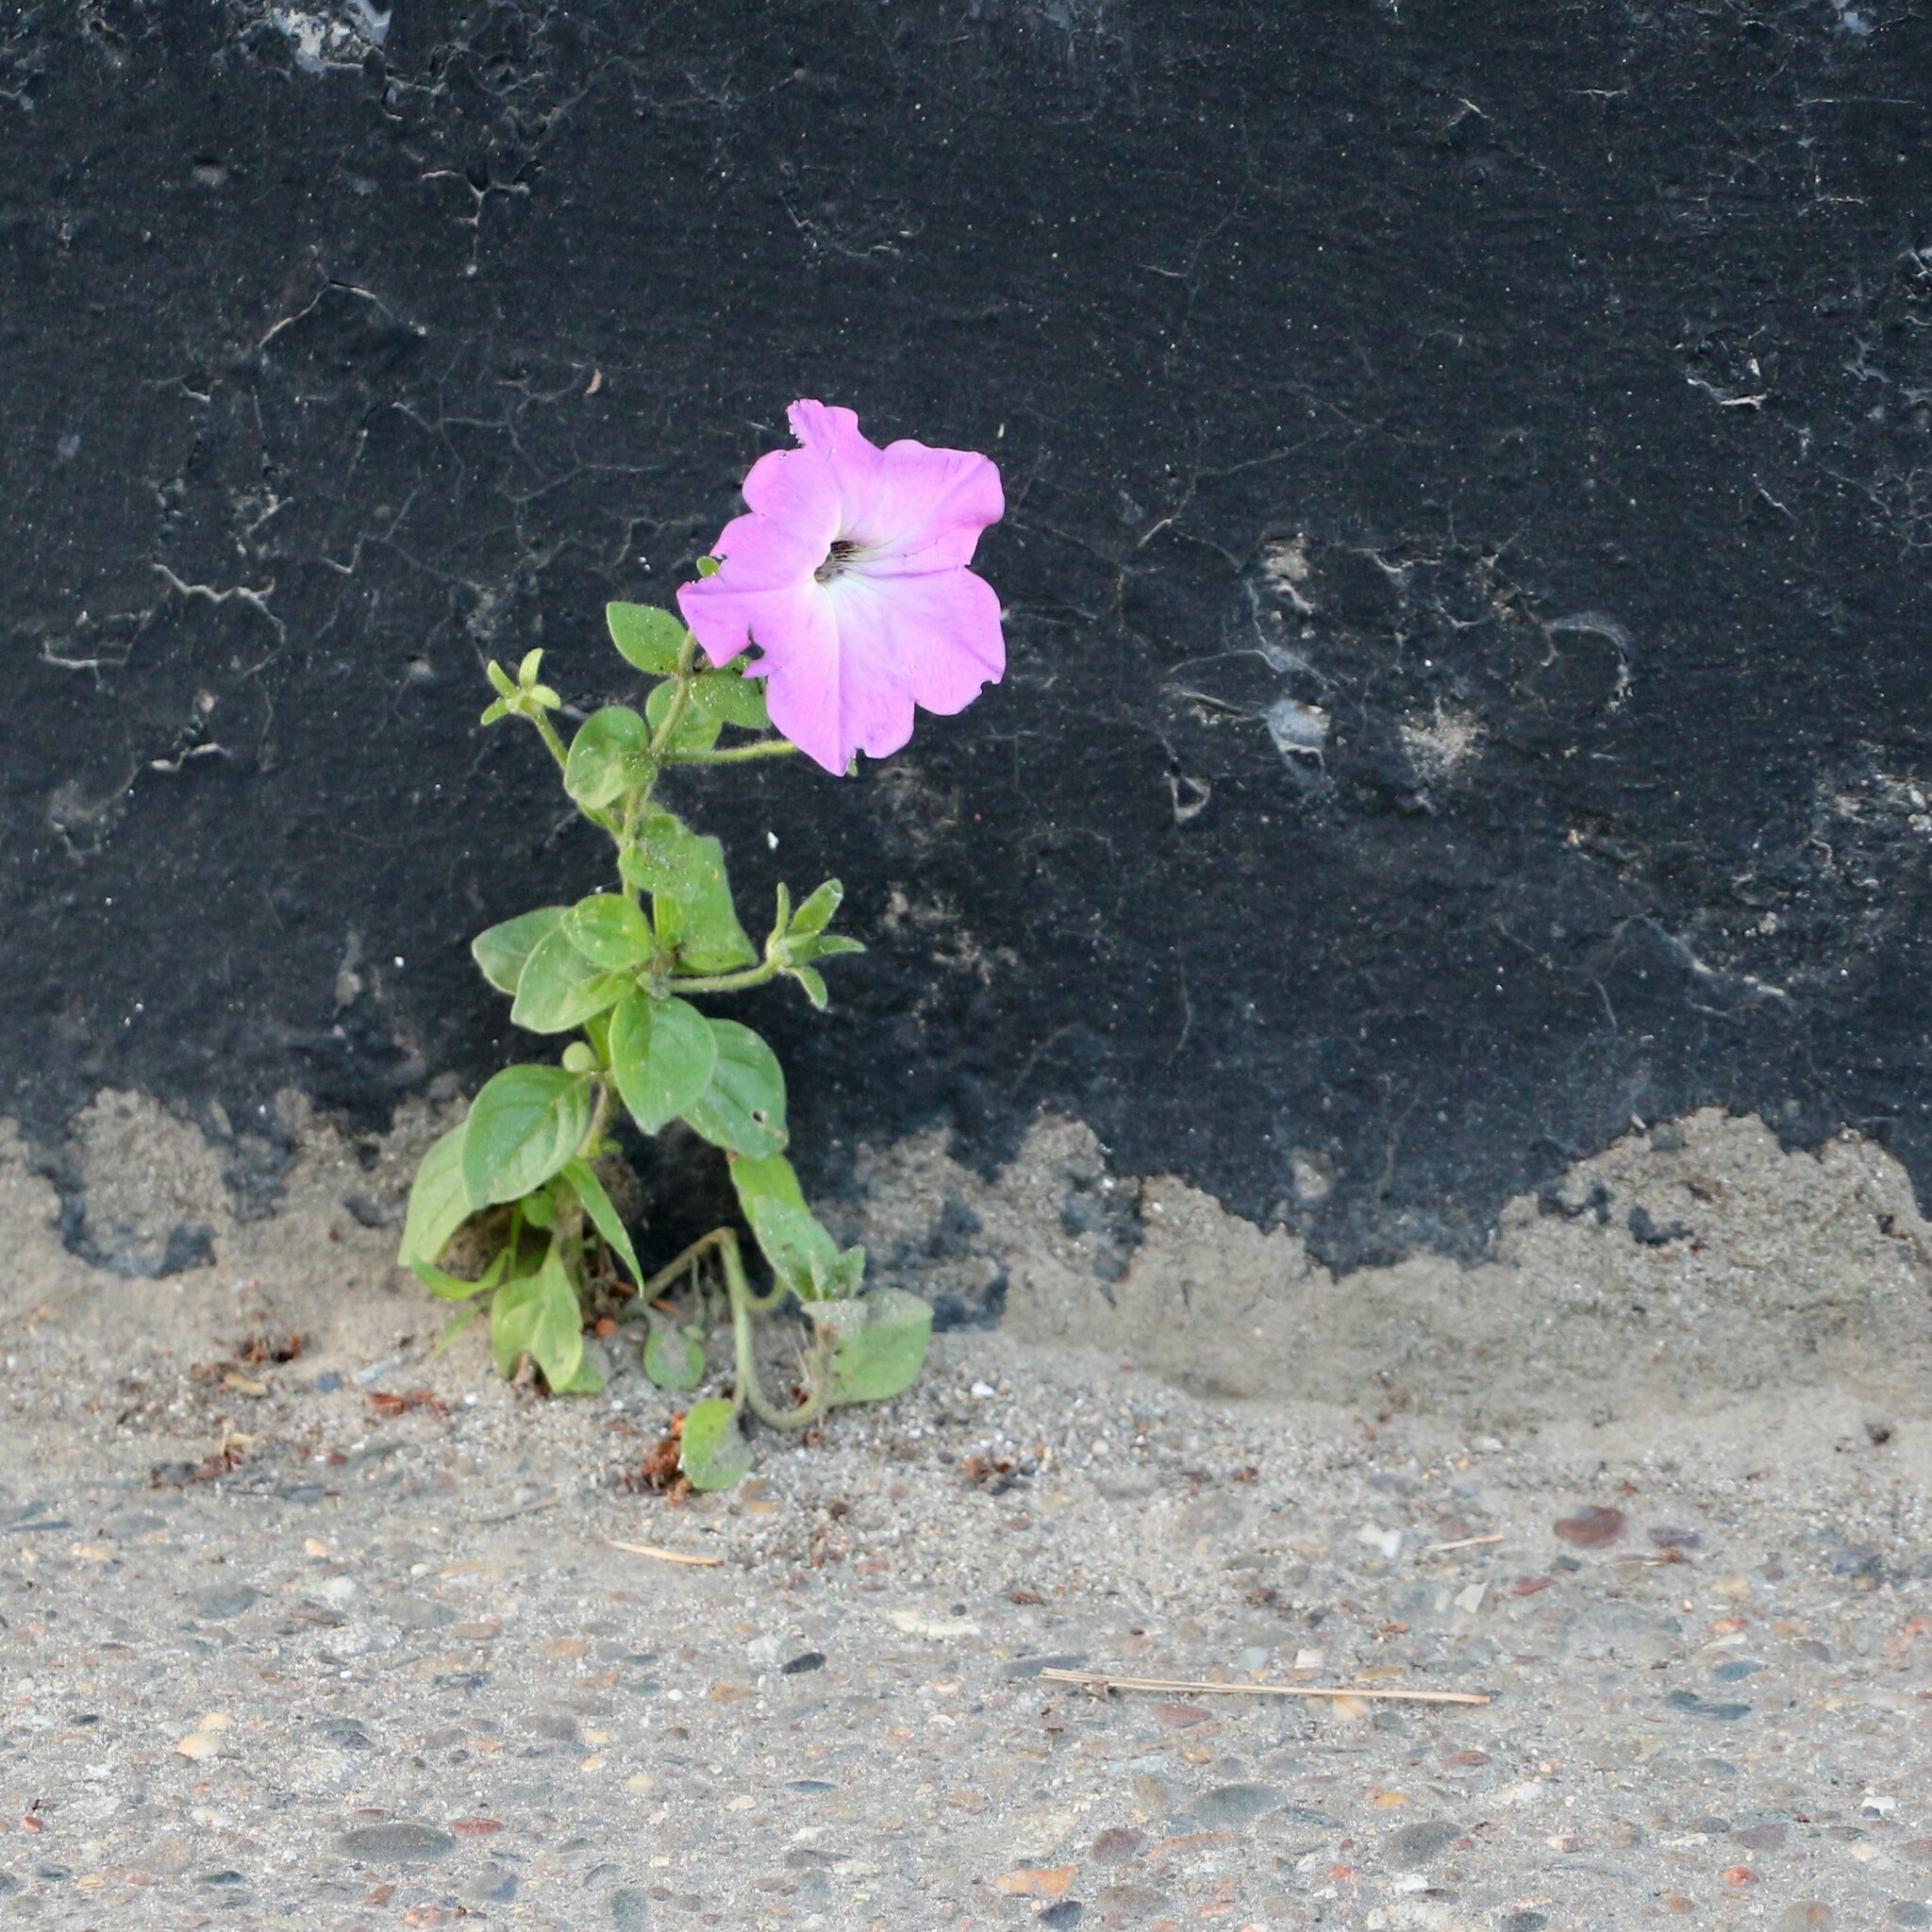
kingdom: Plantae
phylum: Tracheophyta
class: Magnoliopsida
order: Solanales
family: Solanaceae
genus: Petunia
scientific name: Petunia atkinsiana
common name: Petunia
